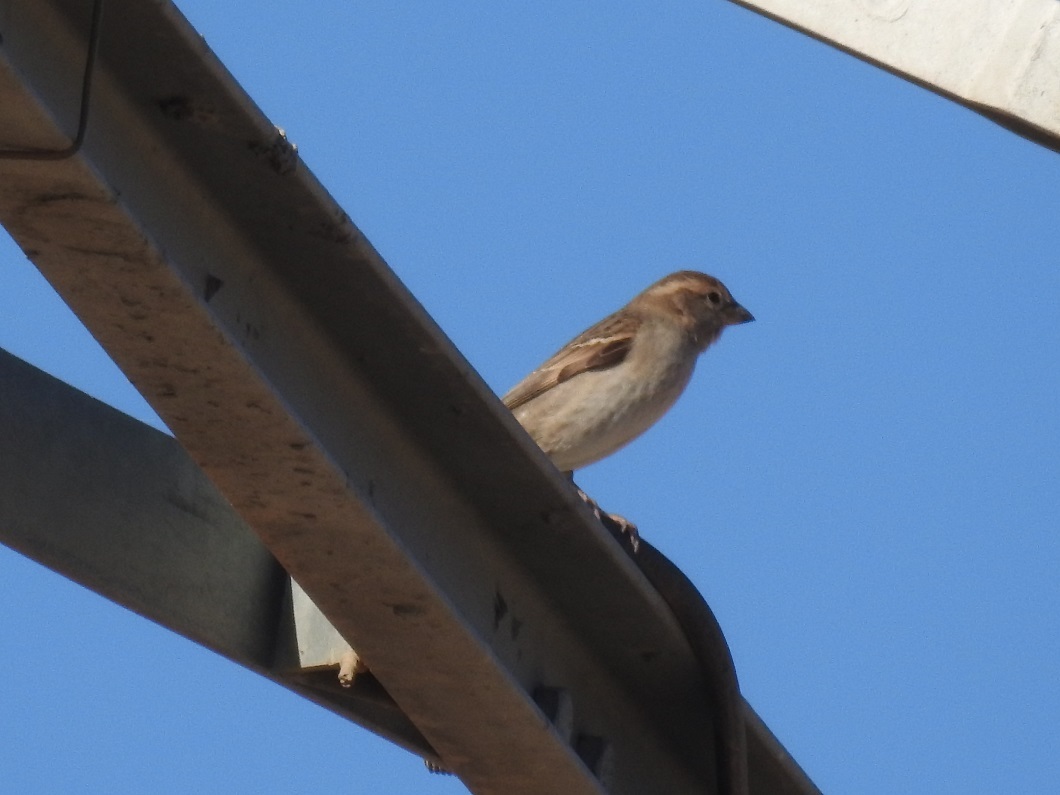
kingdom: Animalia
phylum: Chordata
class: Aves
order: Passeriformes
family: Passeridae
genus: Passer
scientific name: Passer
